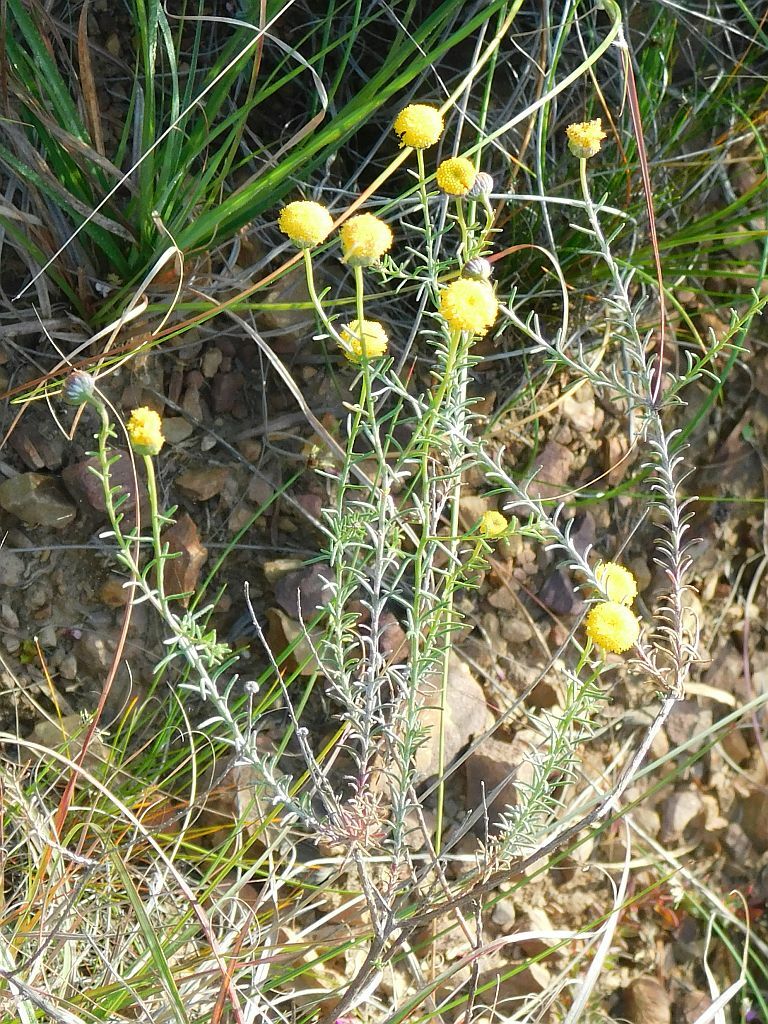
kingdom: Plantae
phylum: Tracheophyta
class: Magnoliopsida
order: Asterales
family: Asteraceae
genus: Chrysocoma
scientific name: Chrysocoma ciliata
